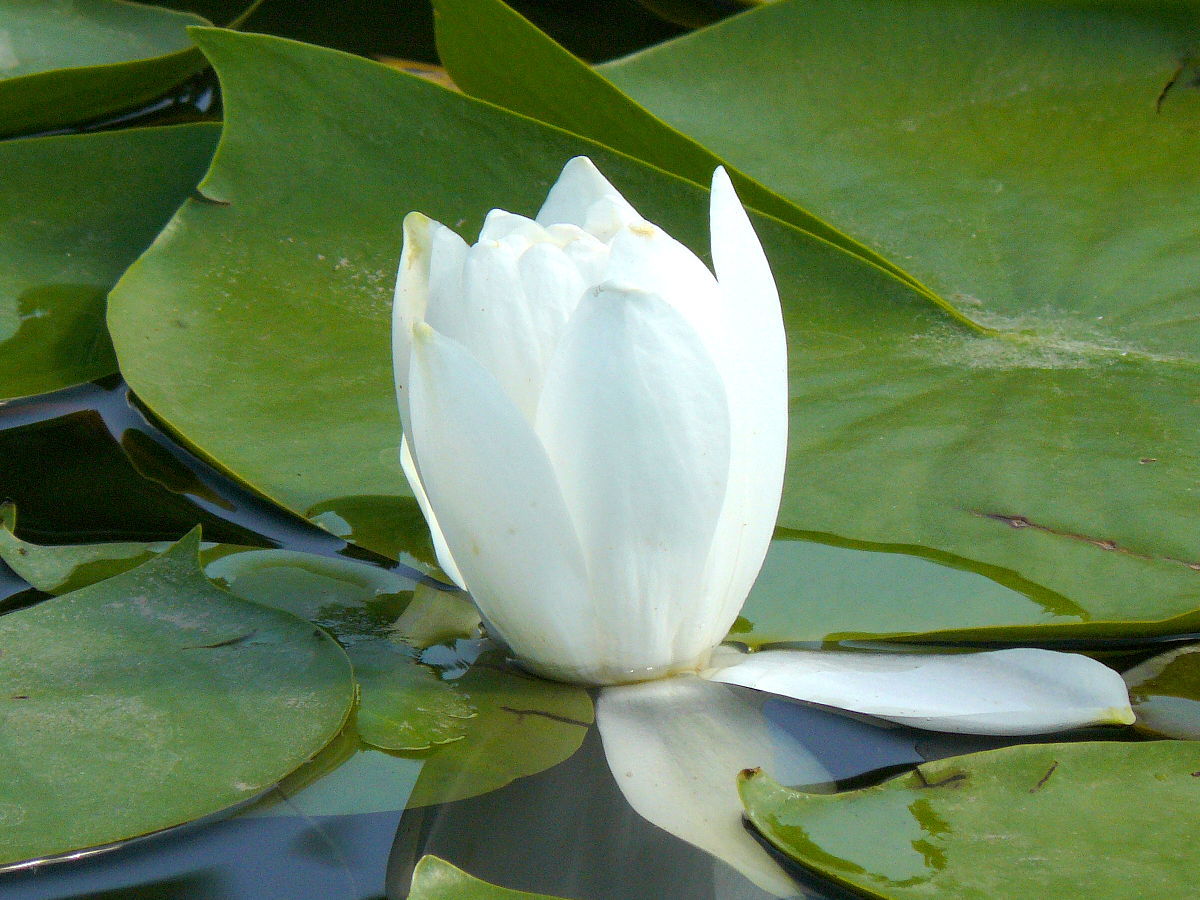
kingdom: Plantae
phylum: Tracheophyta
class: Magnoliopsida
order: Nymphaeales
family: Nymphaeaceae
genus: Nymphaea
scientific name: Nymphaea odorata
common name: Fragrant water-lily
